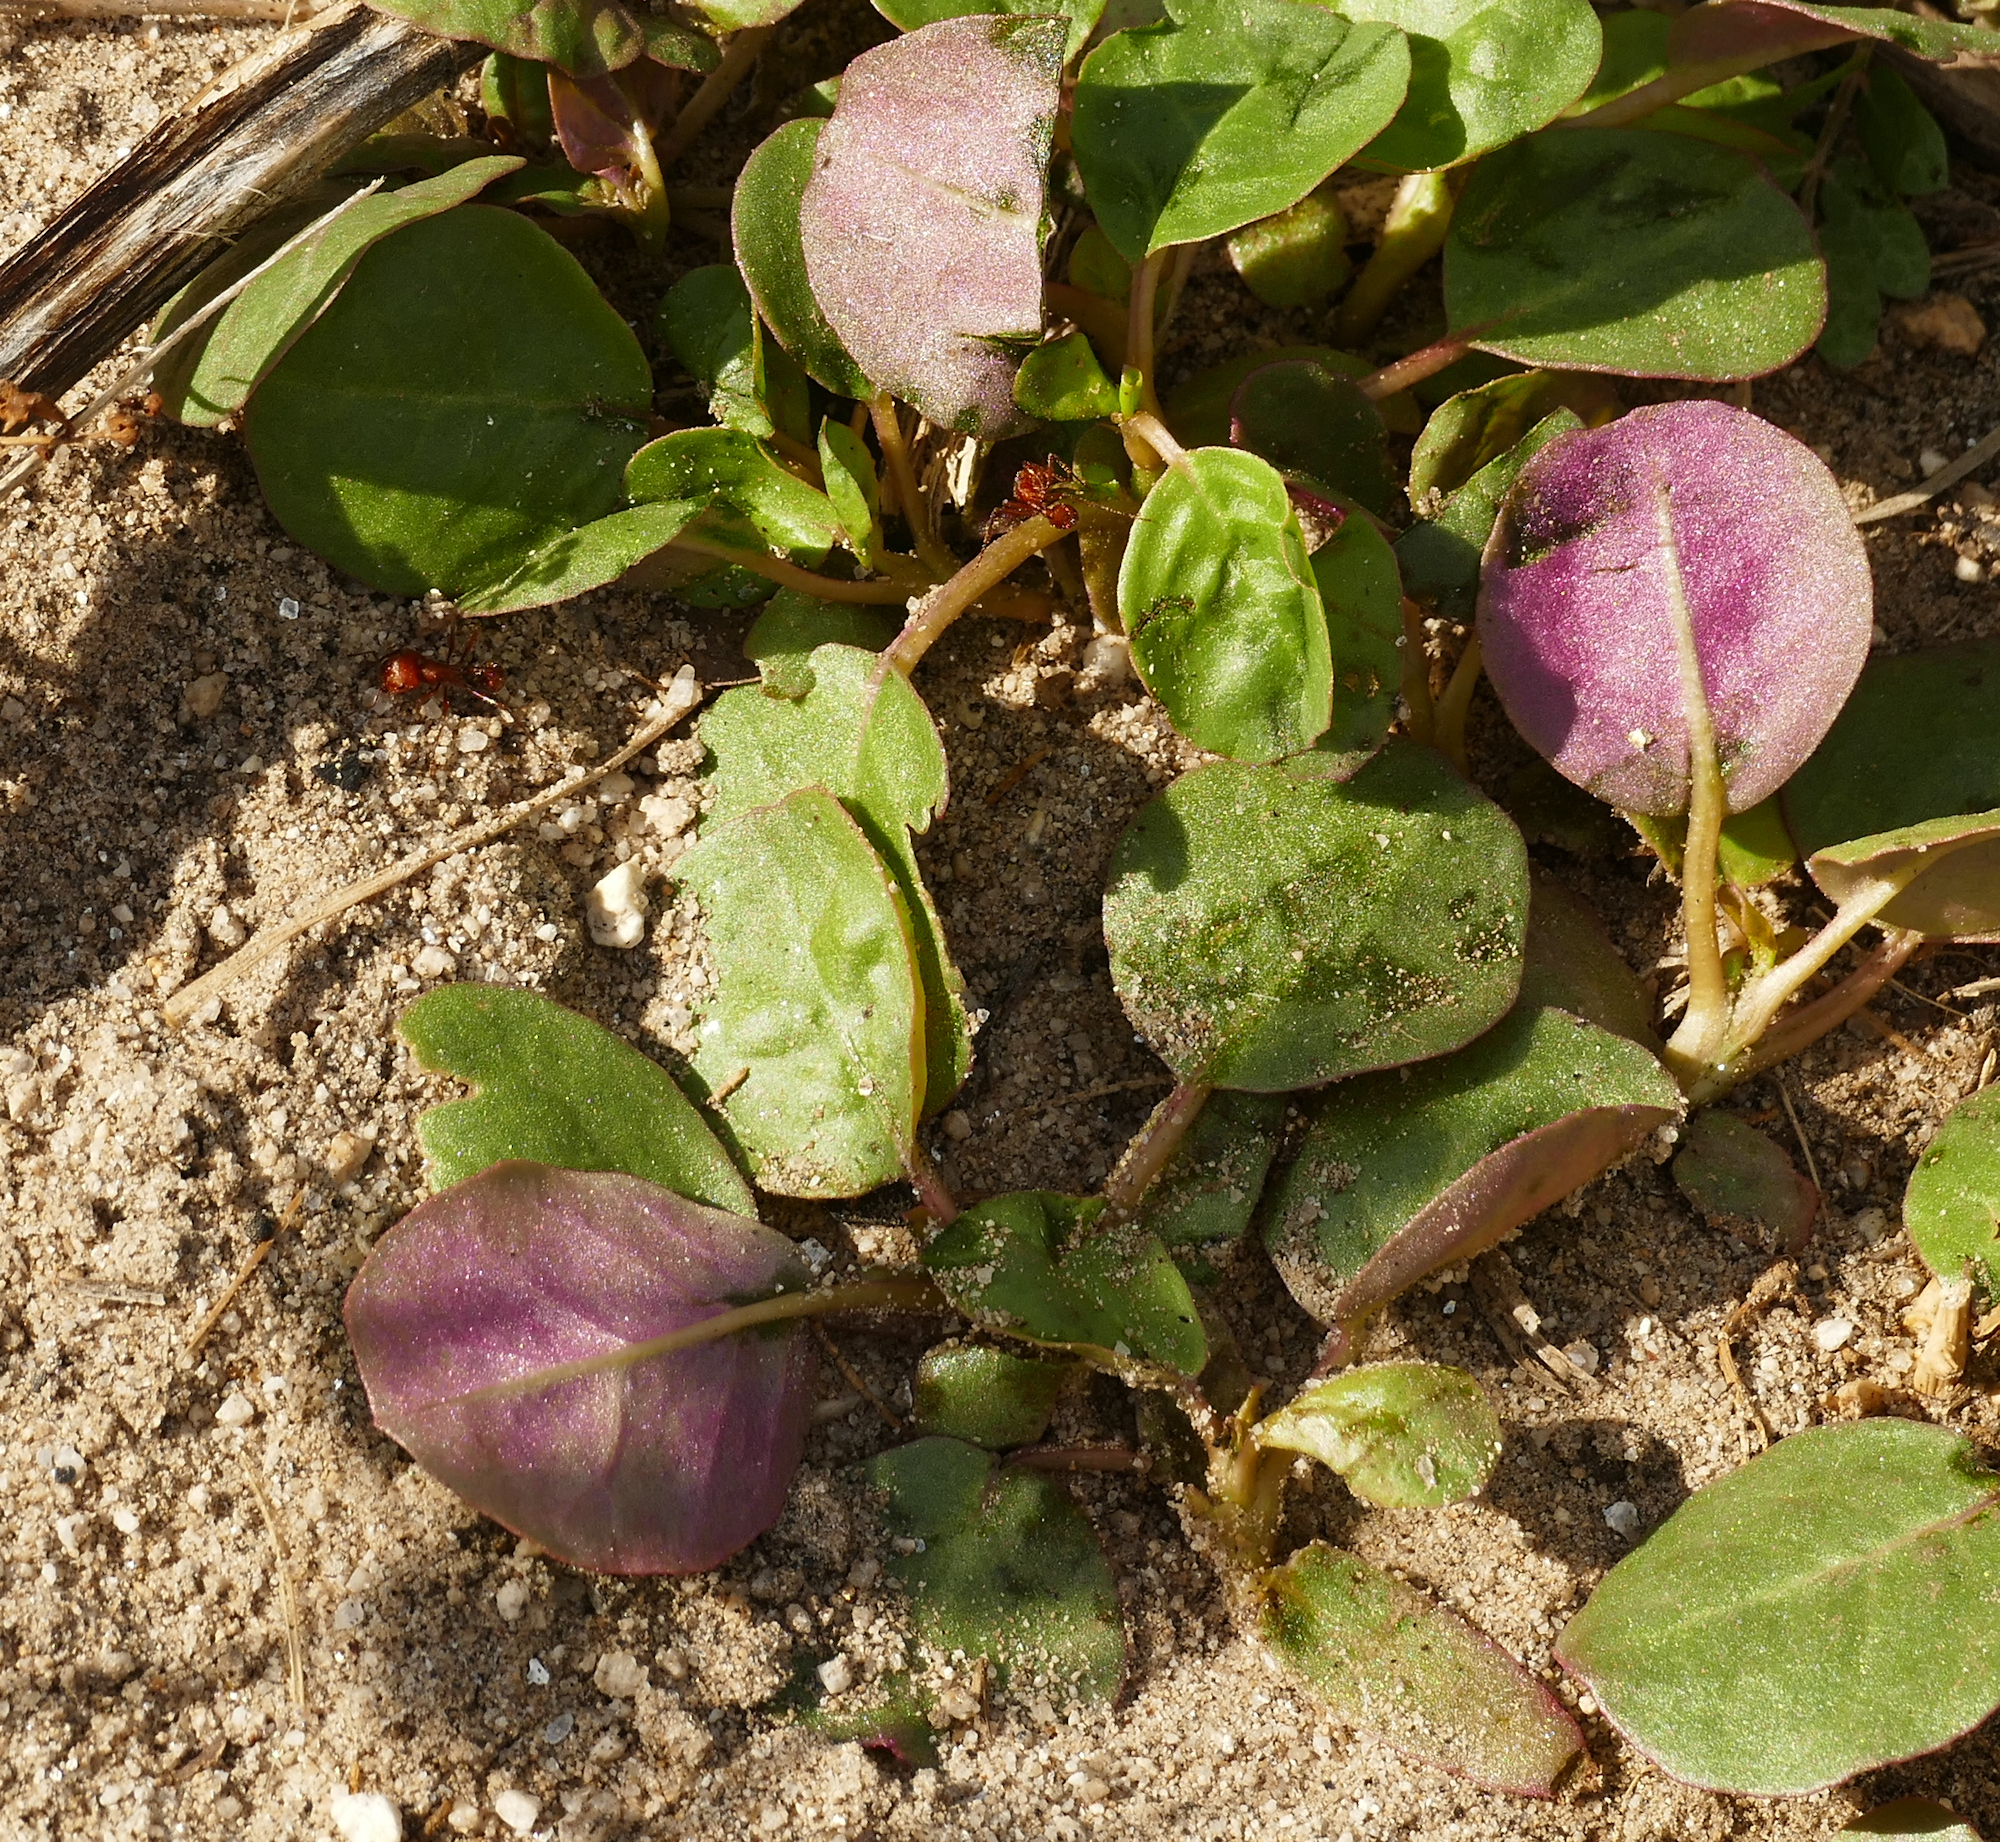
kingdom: Plantae
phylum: Tracheophyta
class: Magnoliopsida
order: Caryophyllales
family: Aizoaceae
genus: Trianthema
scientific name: Trianthema portulacastrum
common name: Desert horsepurslane
